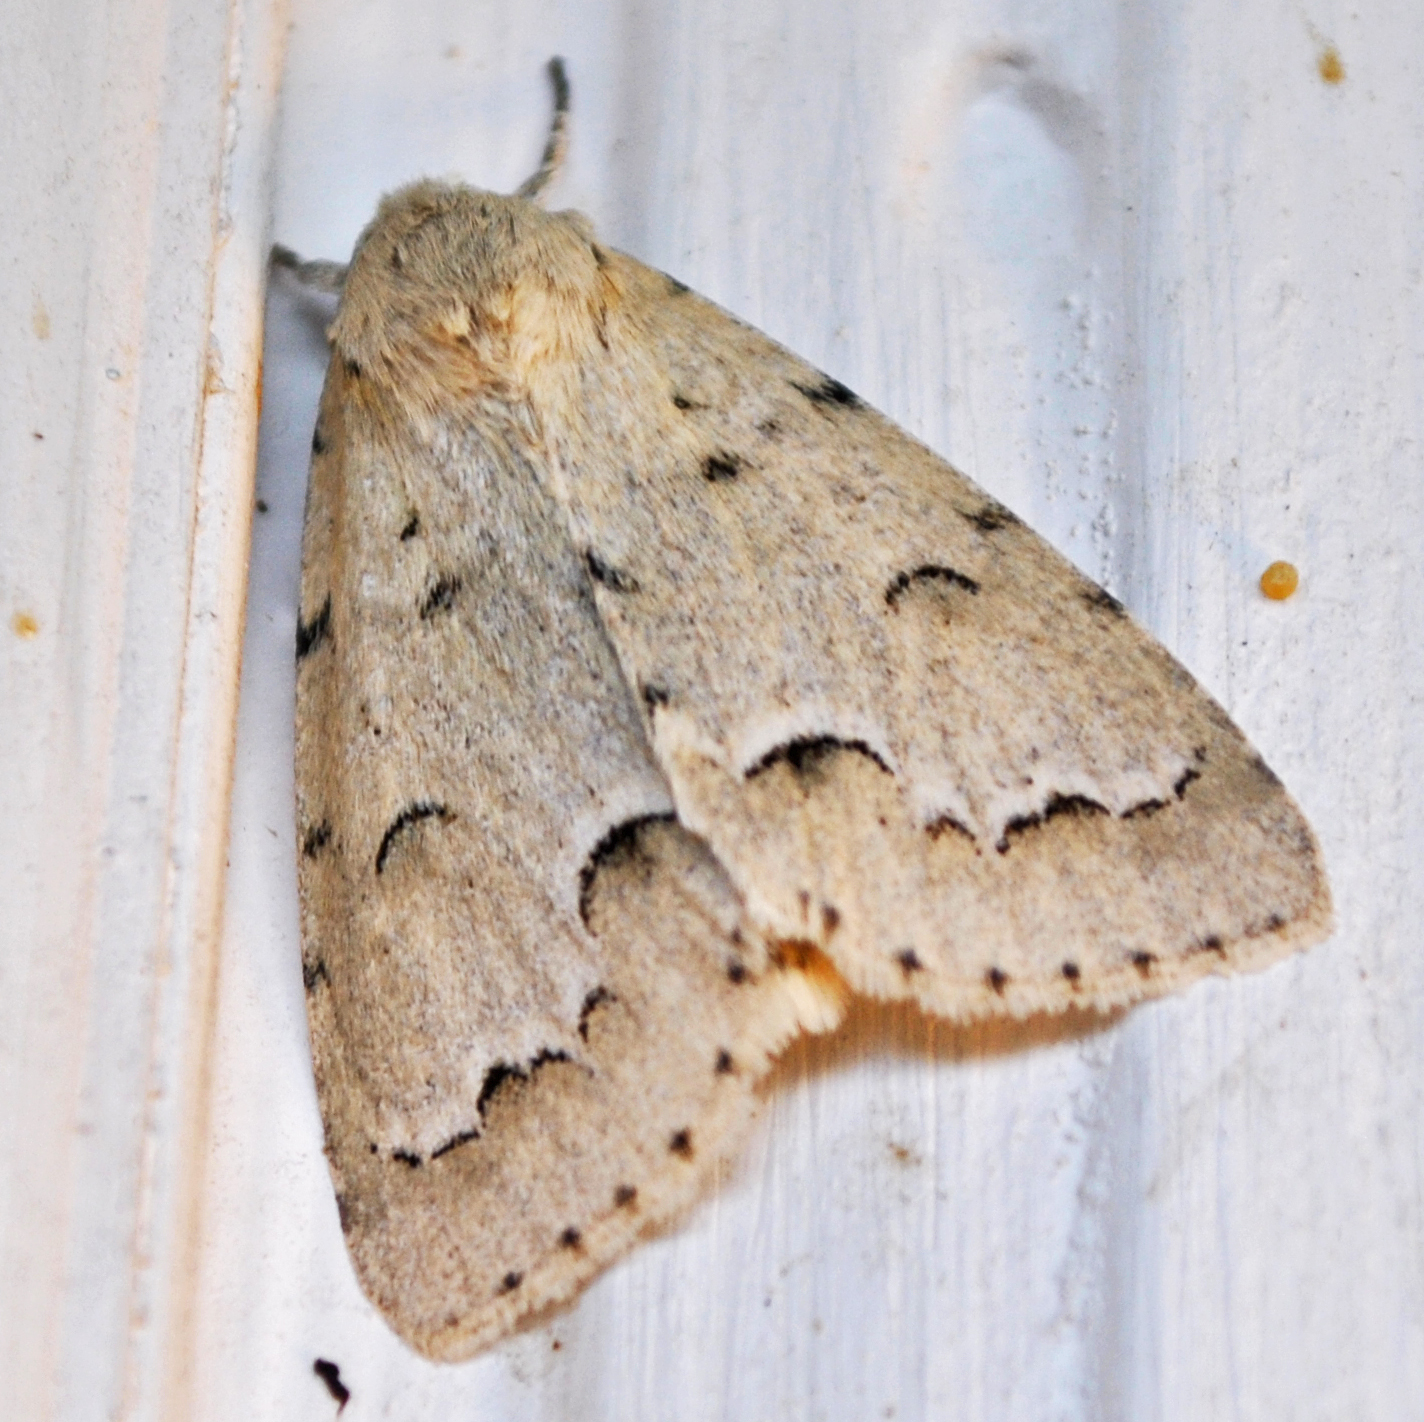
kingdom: Animalia
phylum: Arthropoda
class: Insecta
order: Lepidoptera
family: Noctuidae
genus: Acronicta
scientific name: Acronicta innotata
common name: Unmarked dagger
